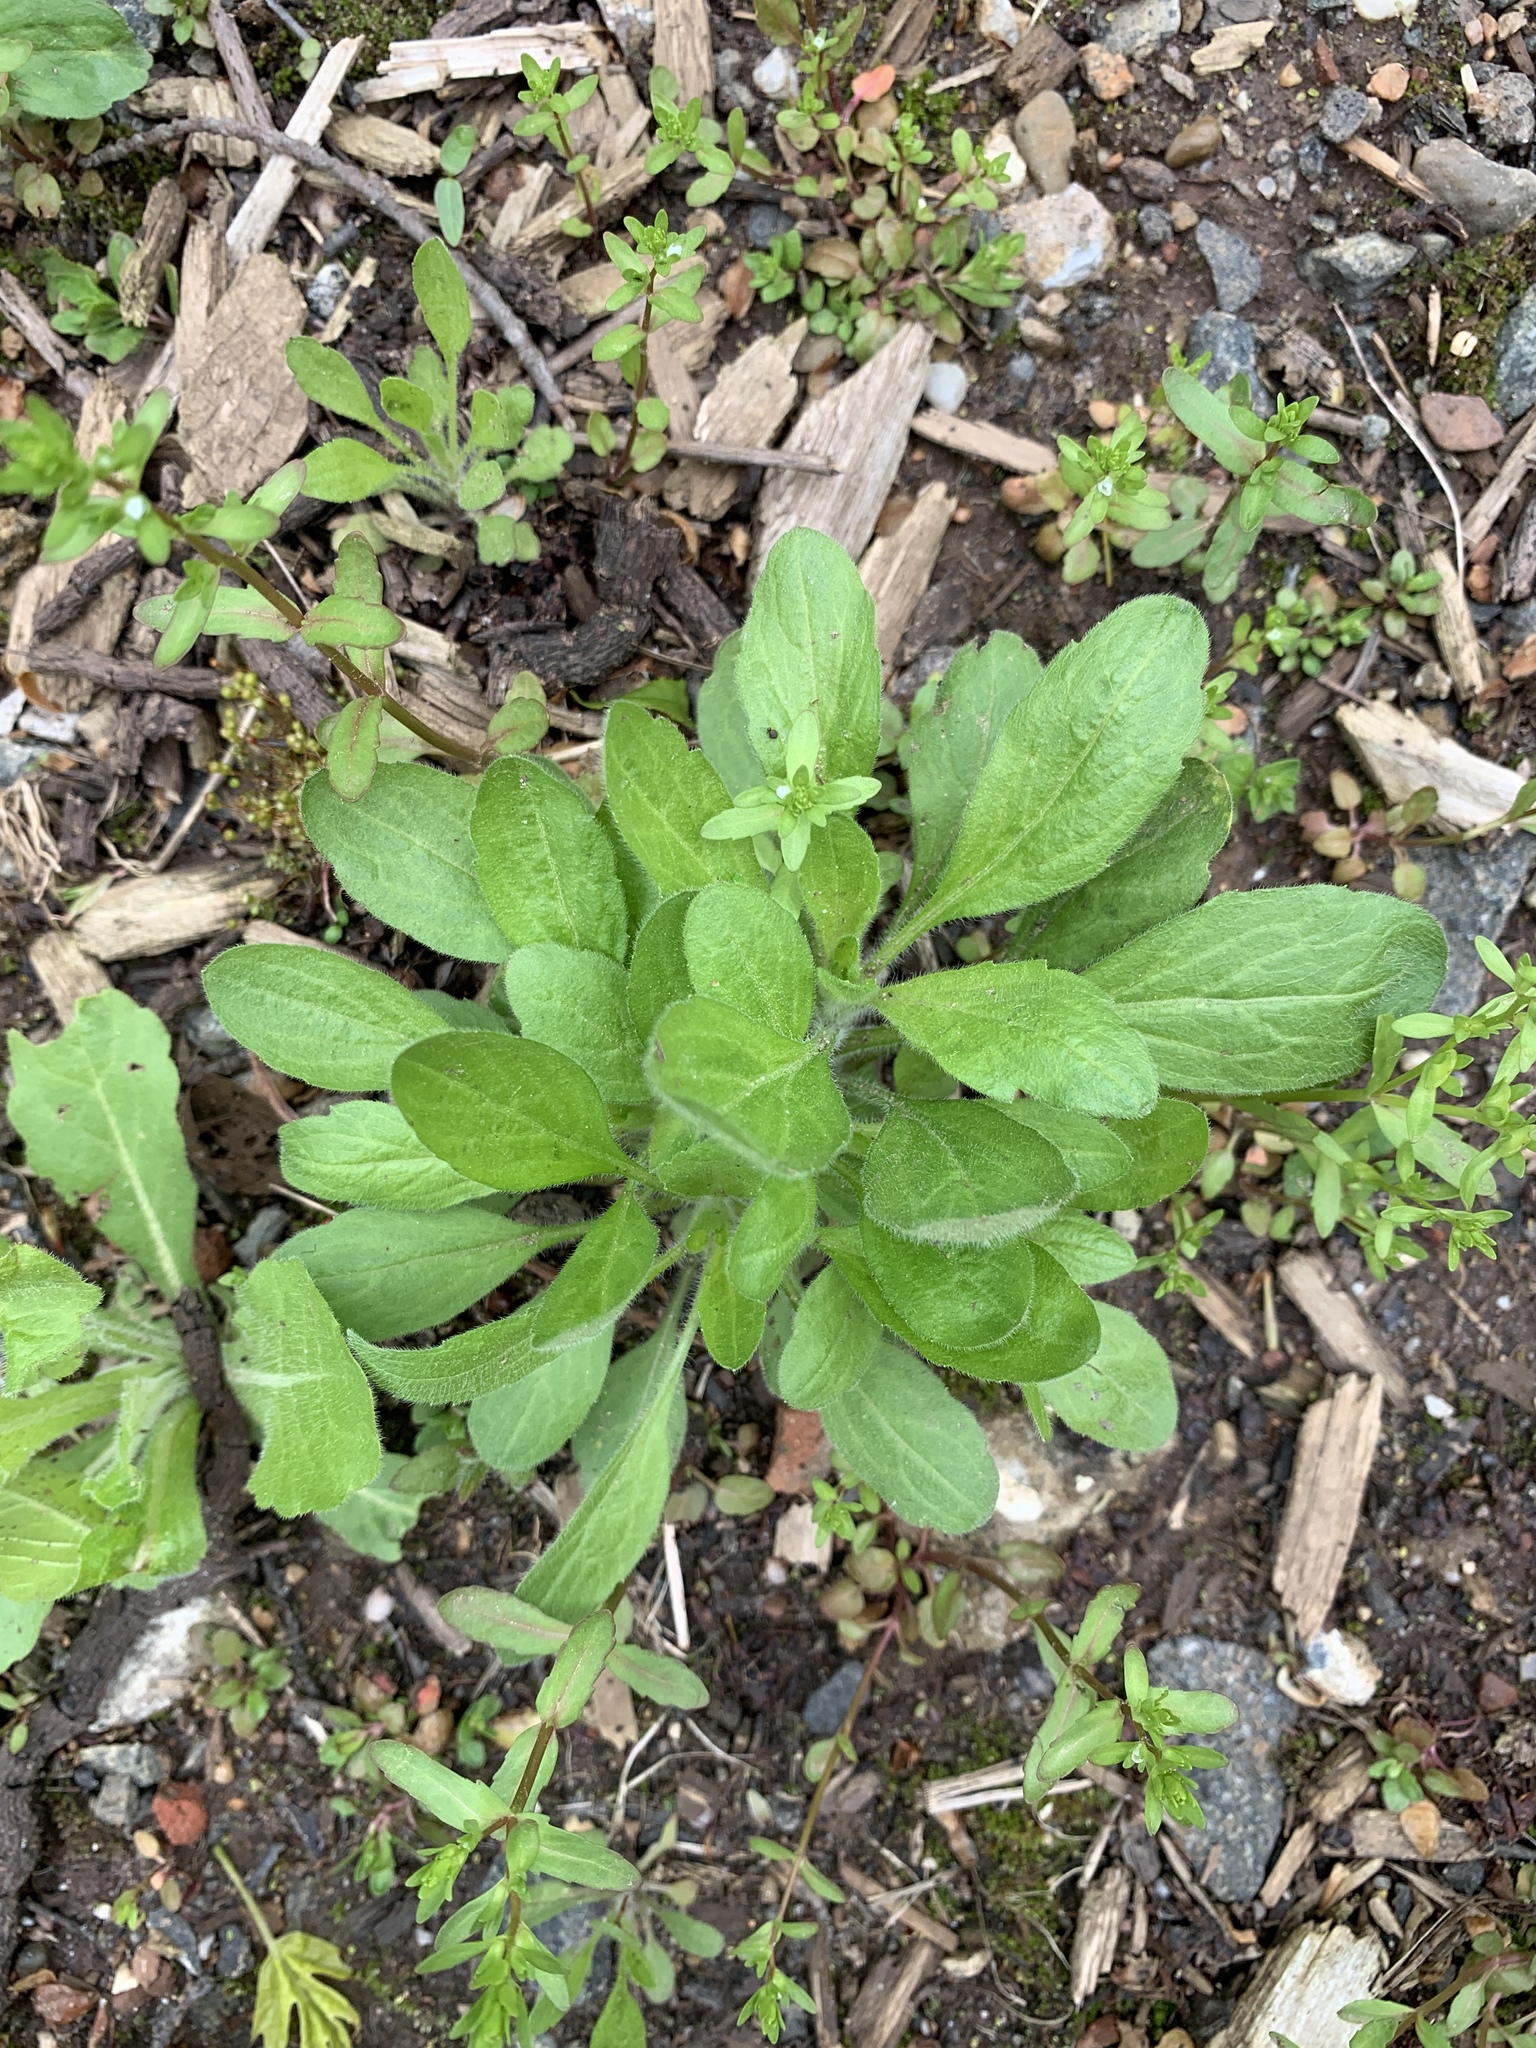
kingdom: Plantae
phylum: Tracheophyta
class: Magnoliopsida
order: Asterales
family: Asteraceae
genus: Erigeron
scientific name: Erigeron canadensis
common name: Canadian fleabane
